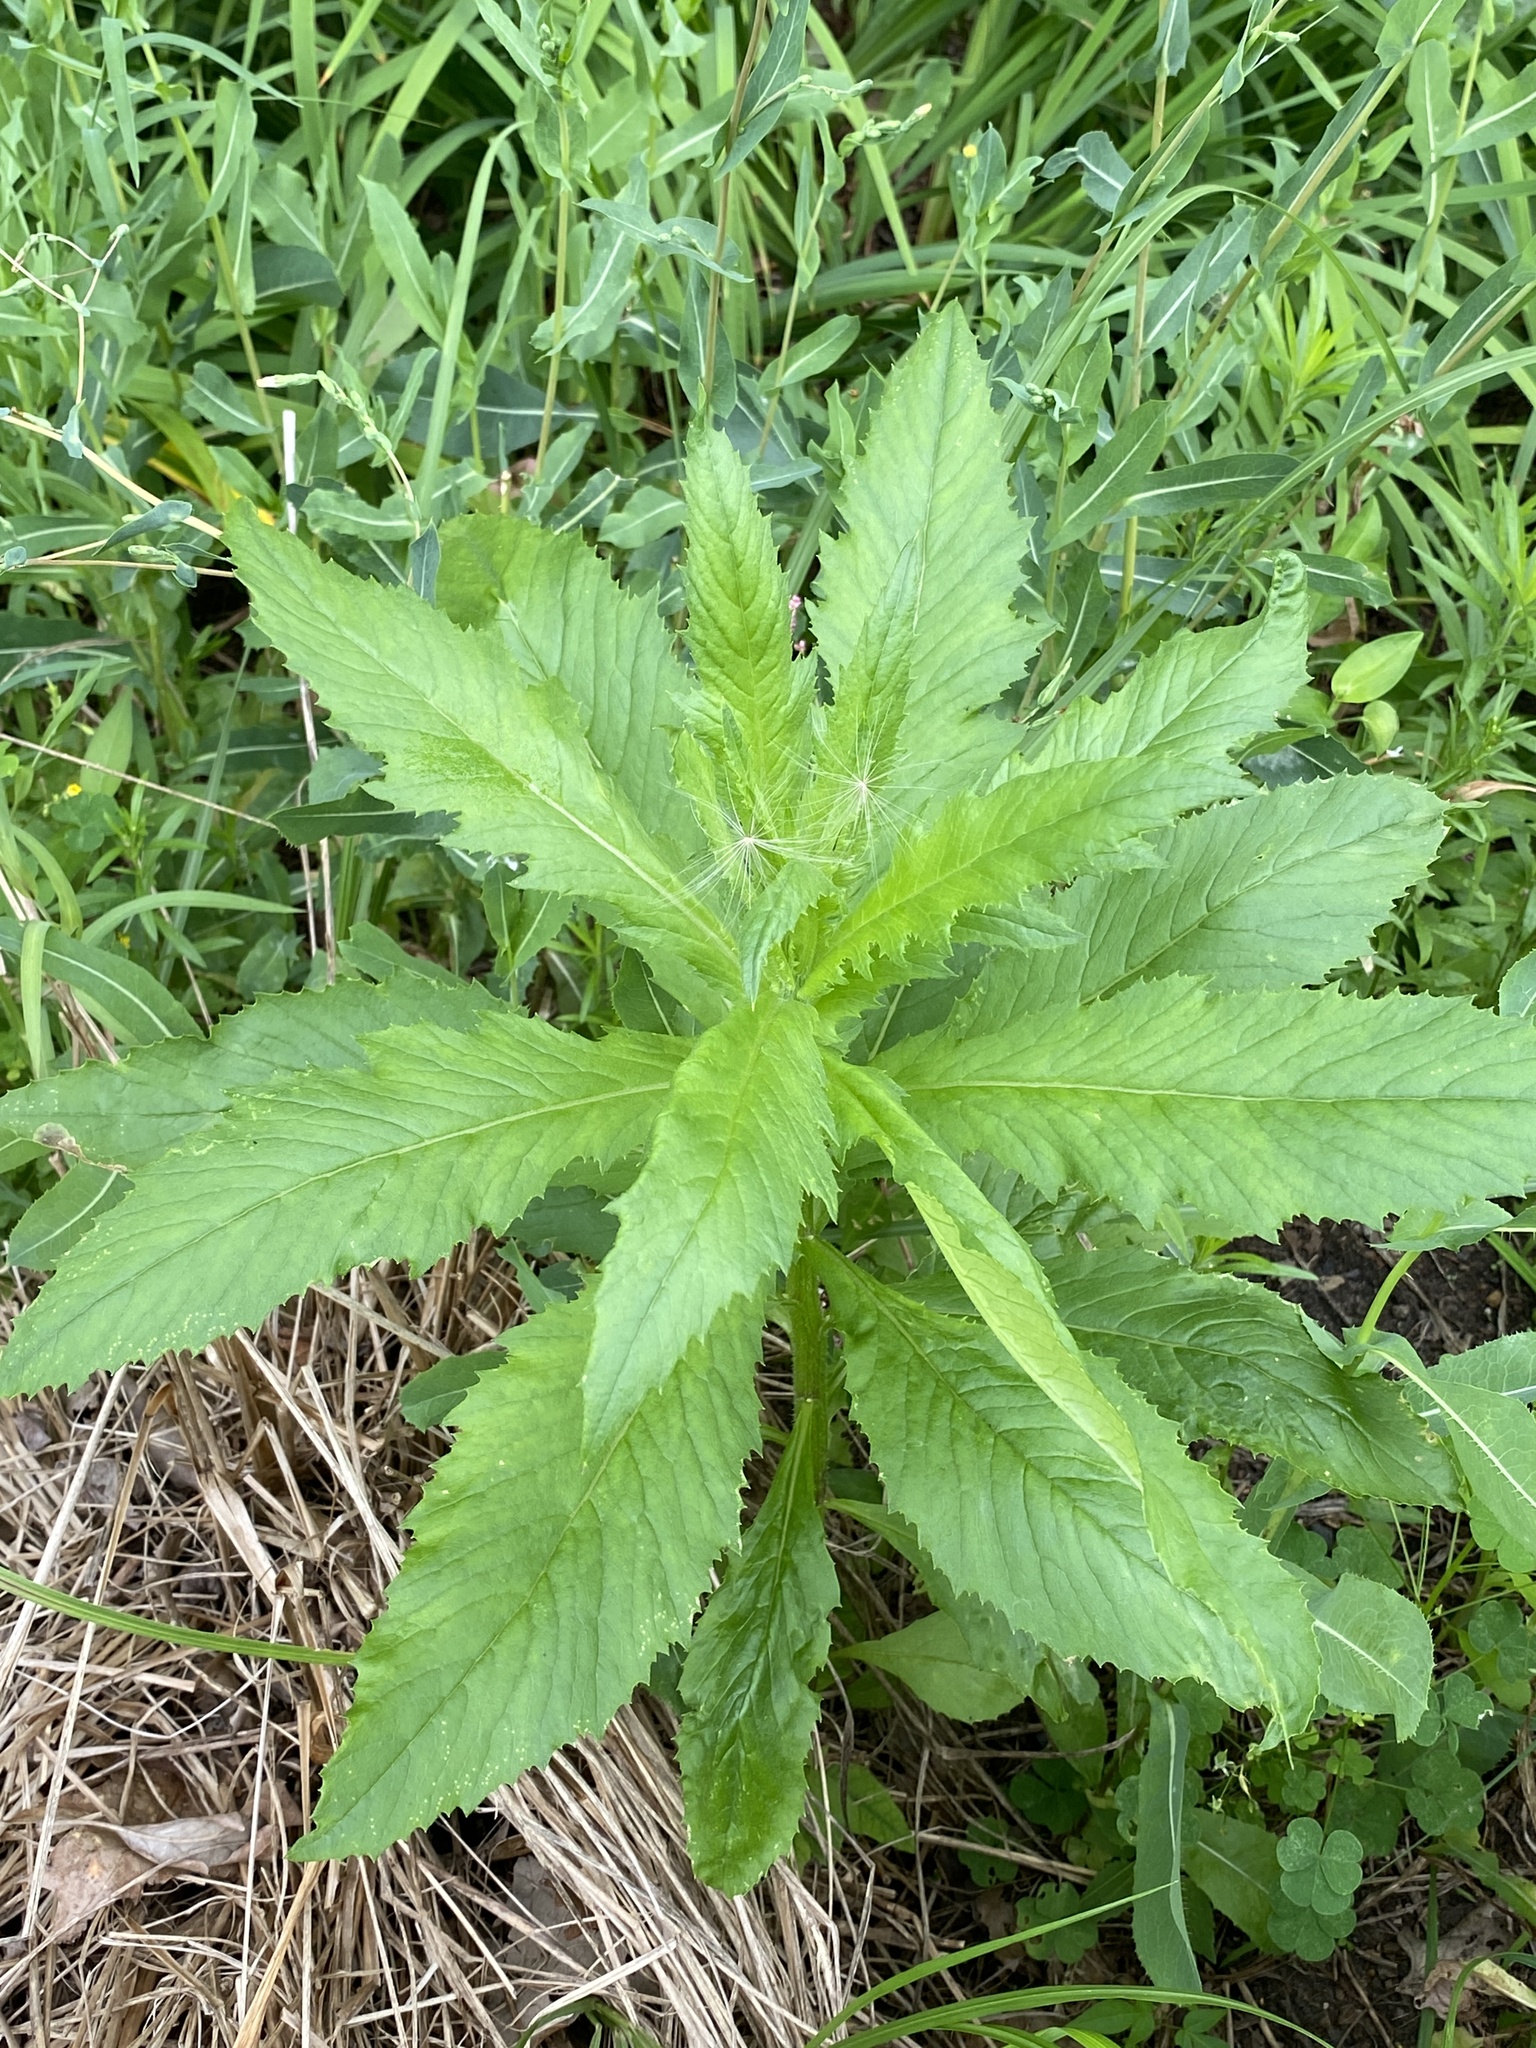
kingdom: Plantae
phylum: Tracheophyta
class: Magnoliopsida
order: Asterales
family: Asteraceae
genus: Erechtites
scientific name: Erechtites hieraciifolius
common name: American burnweed
